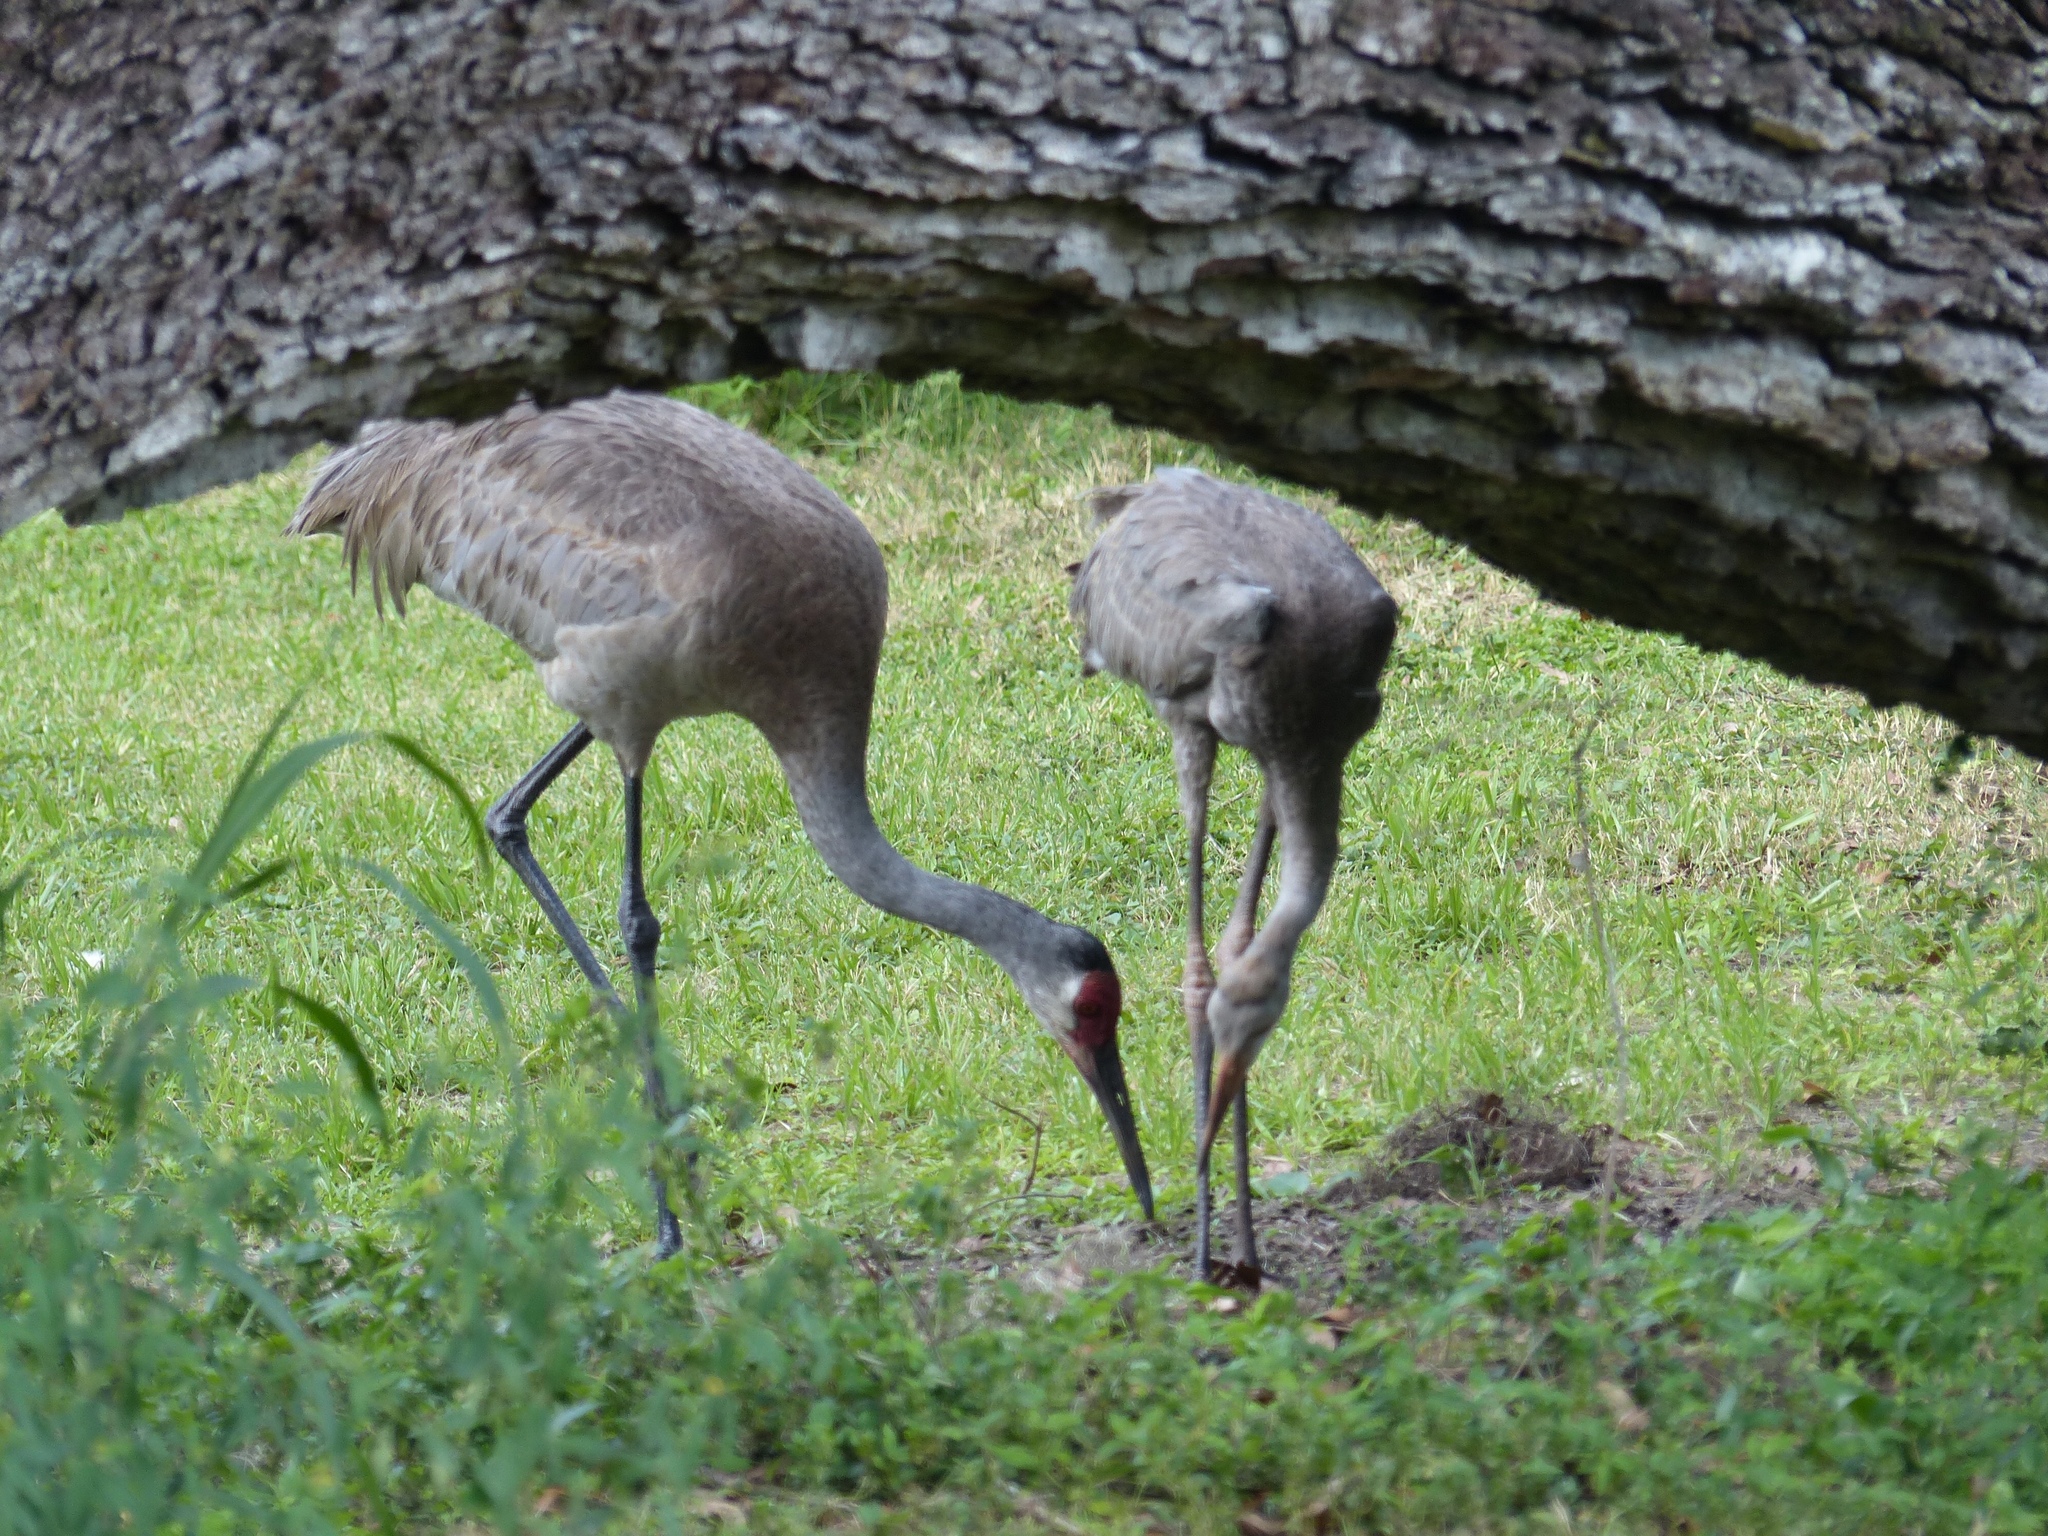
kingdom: Animalia
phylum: Chordata
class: Aves
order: Gruiformes
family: Gruidae
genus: Grus
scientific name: Grus canadensis
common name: Sandhill crane
